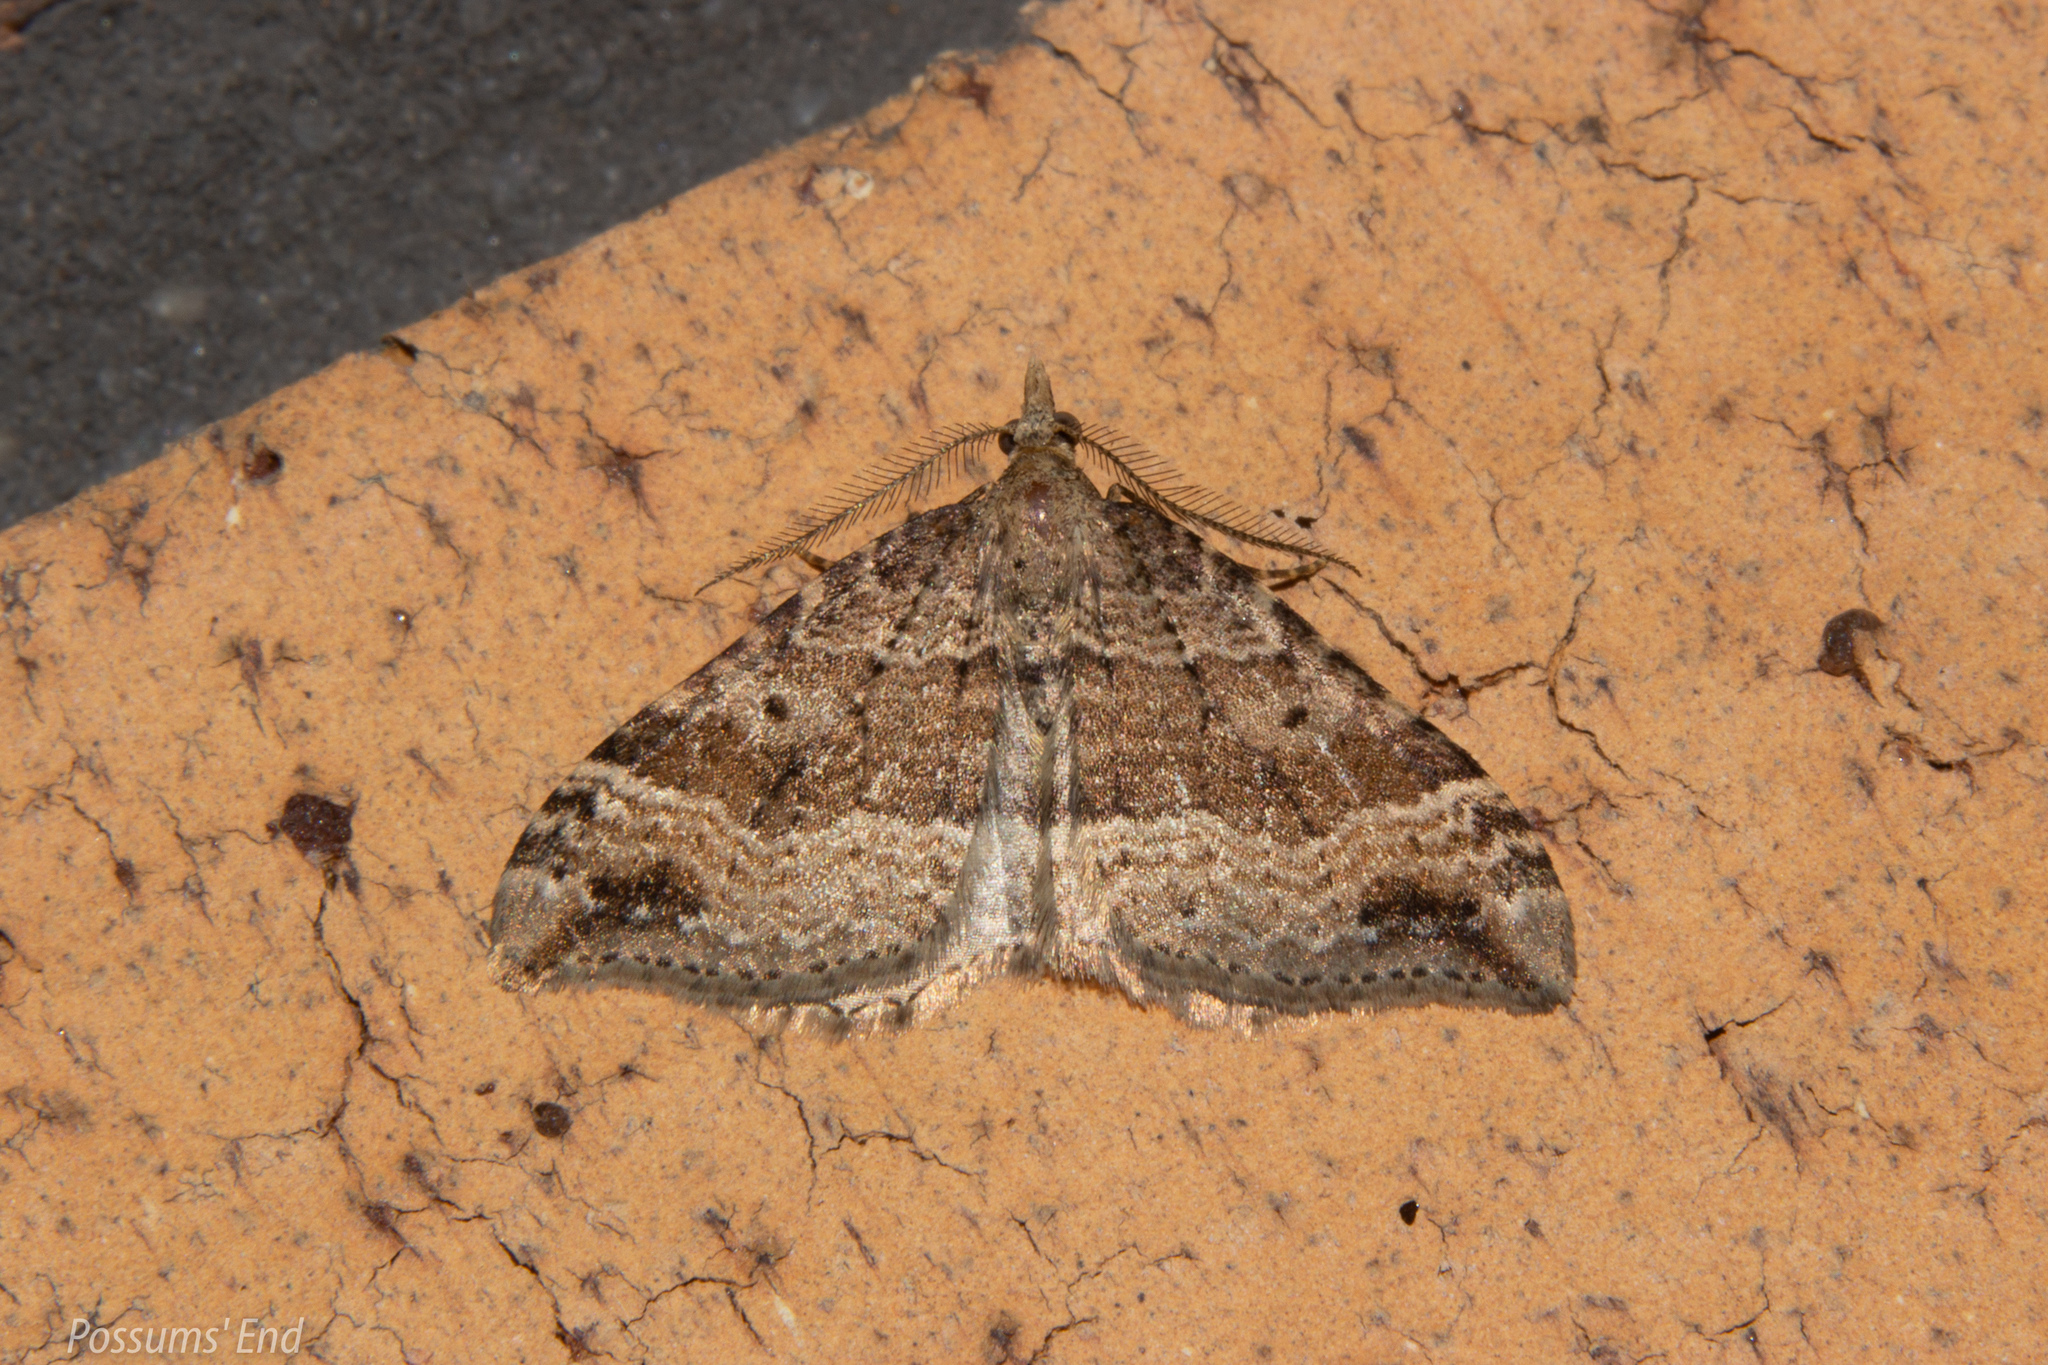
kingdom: Animalia
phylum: Arthropoda
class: Insecta
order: Lepidoptera
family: Geometridae
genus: Homodotis
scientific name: Homodotis falcata
